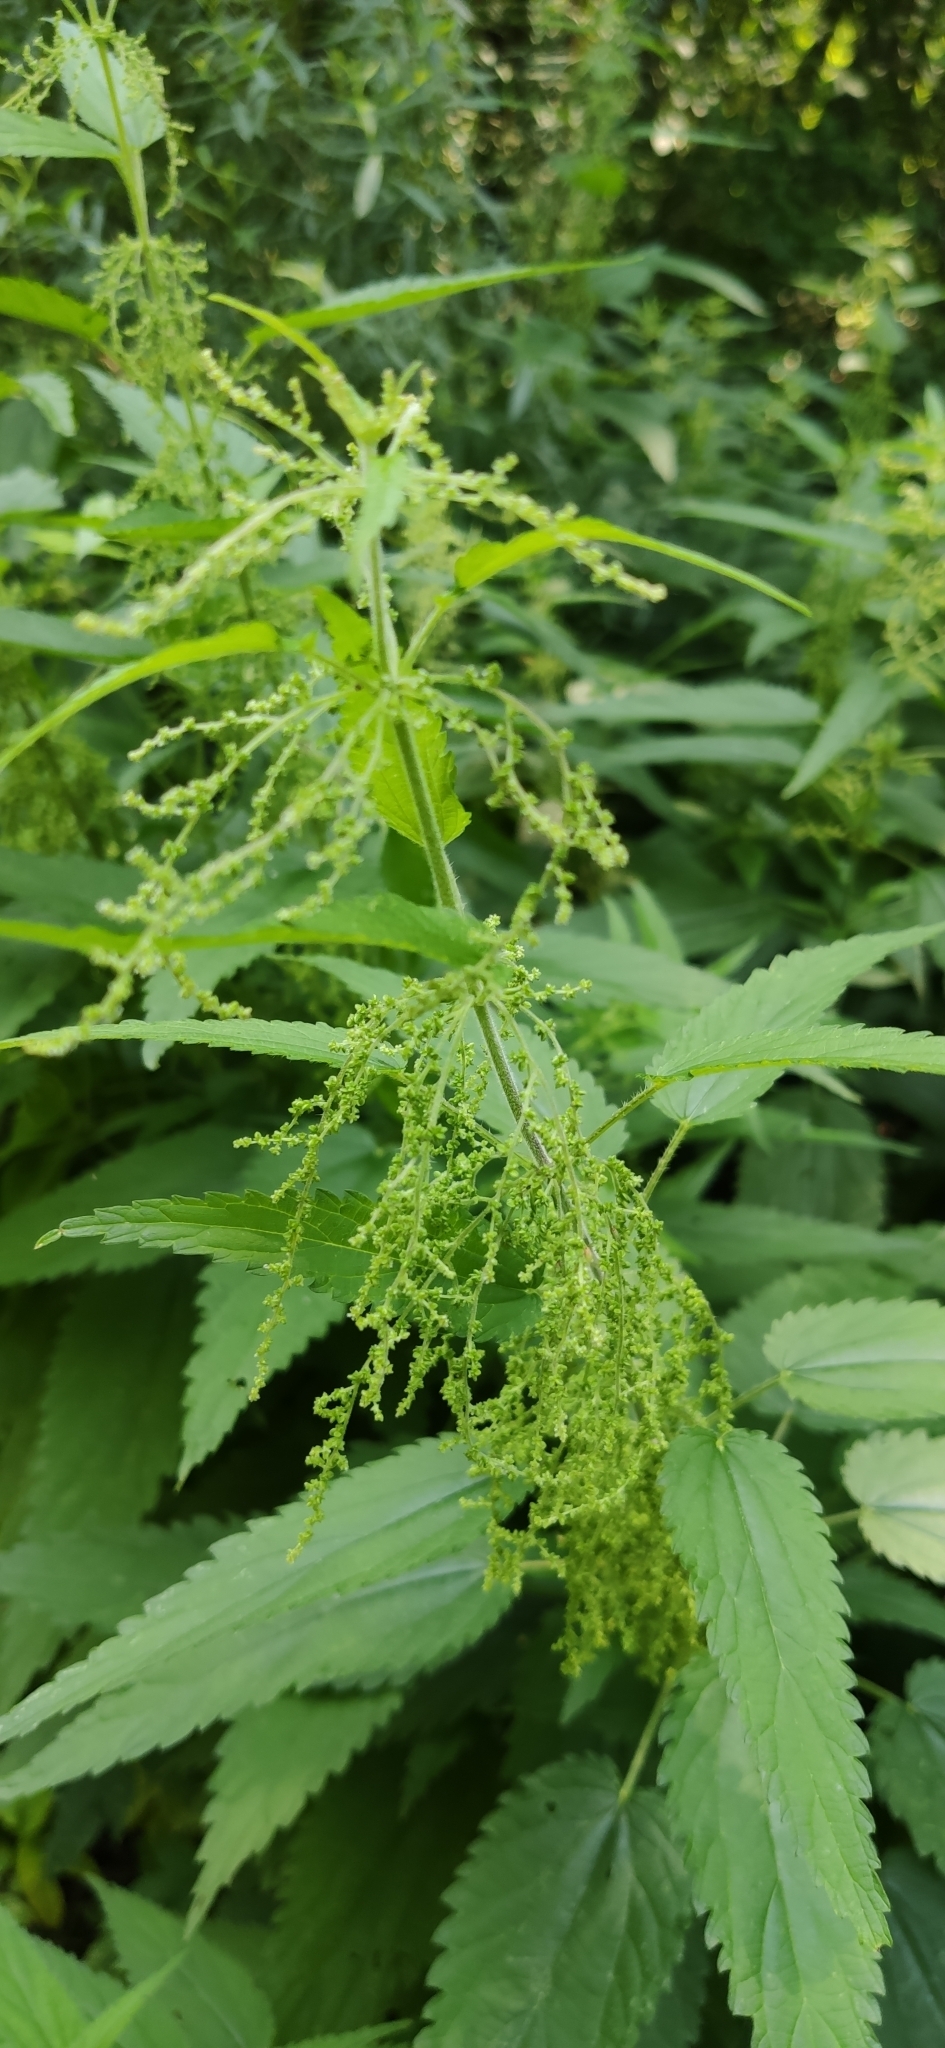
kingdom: Plantae
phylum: Tracheophyta
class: Magnoliopsida
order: Rosales
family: Urticaceae
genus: Urtica
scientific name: Urtica dioica
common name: Common nettle
